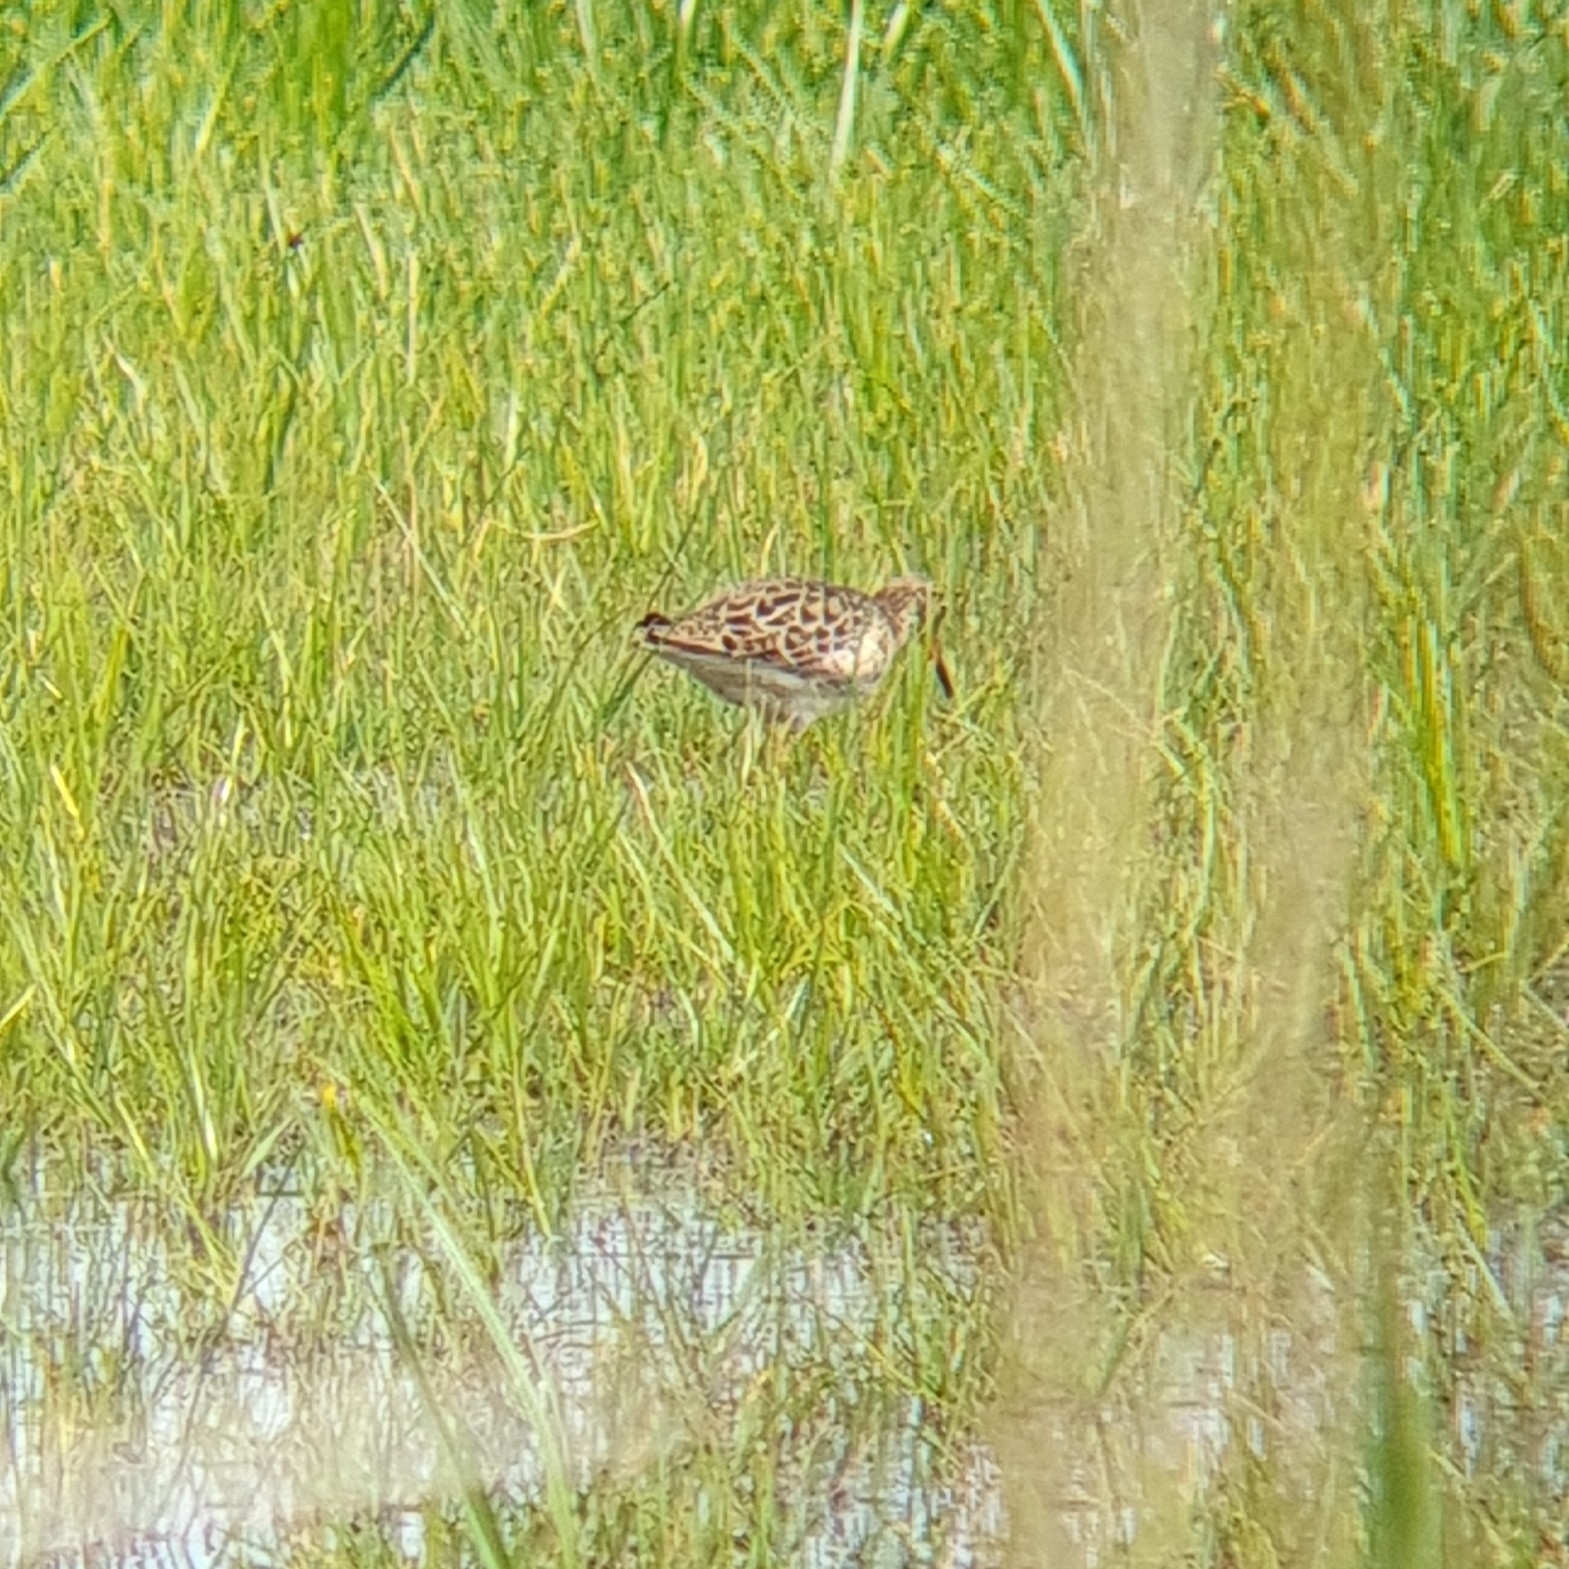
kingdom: Animalia
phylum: Chordata
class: Aves
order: Charadriiformes
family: Scolopacidae
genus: Calidris
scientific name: Calidris pugnax
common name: Ruff
